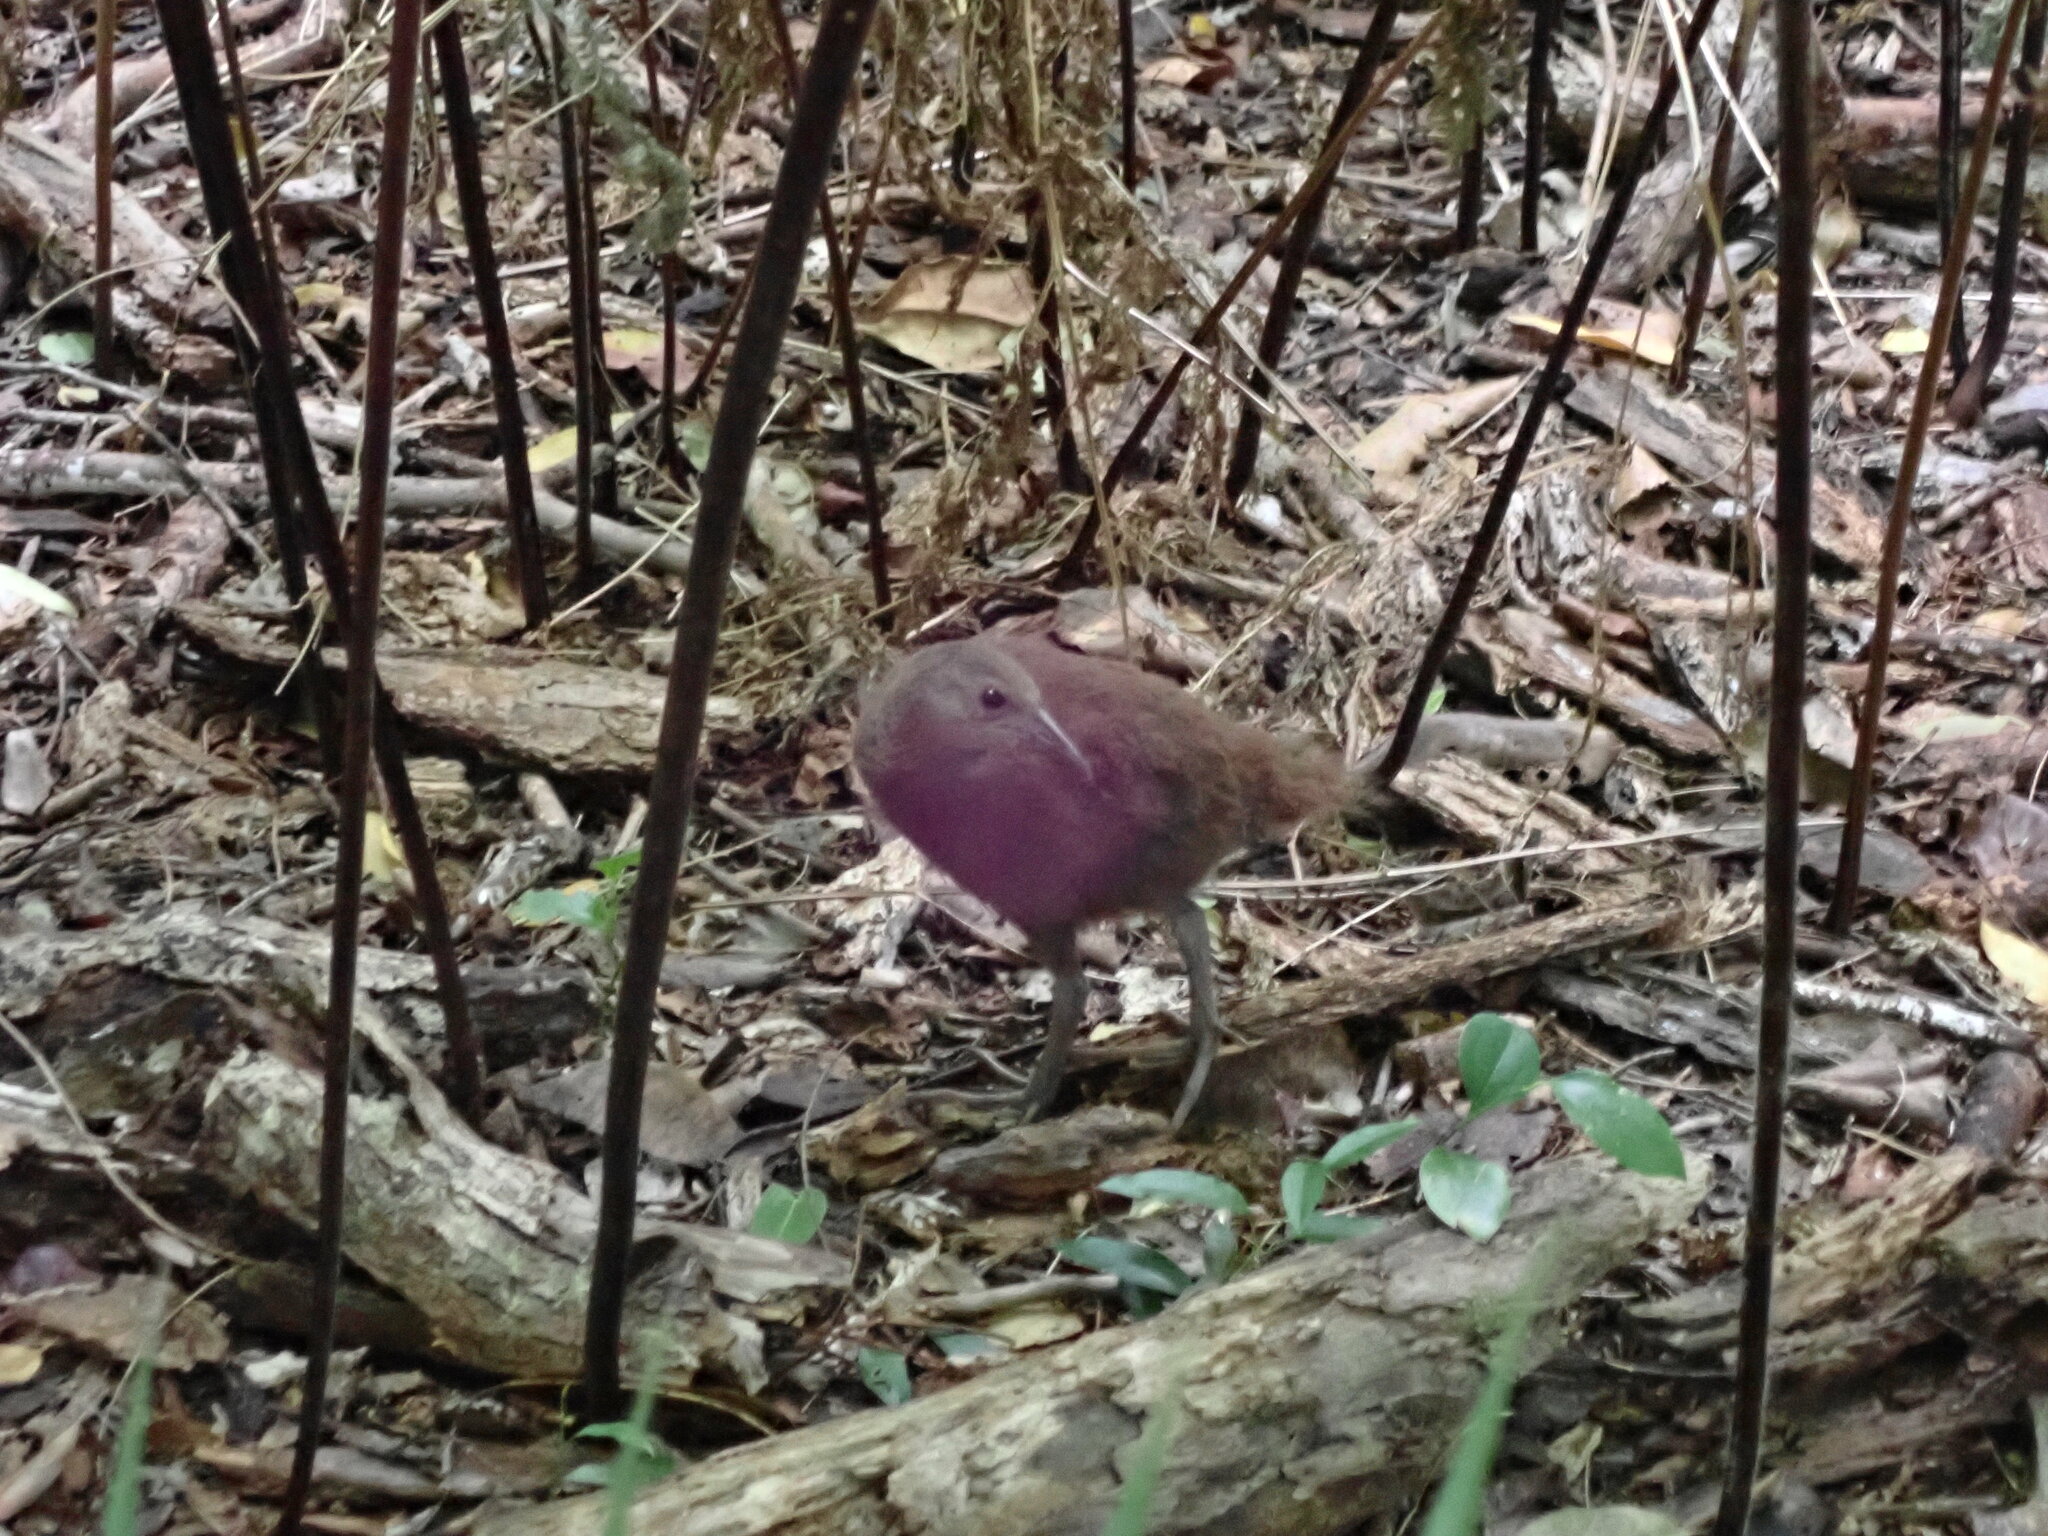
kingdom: Animalia
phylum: Chordata
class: Aves
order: Gruiformes
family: Rallidae
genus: Gallirallus
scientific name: Gallirallus sylvestris
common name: Lord howe woodhen
